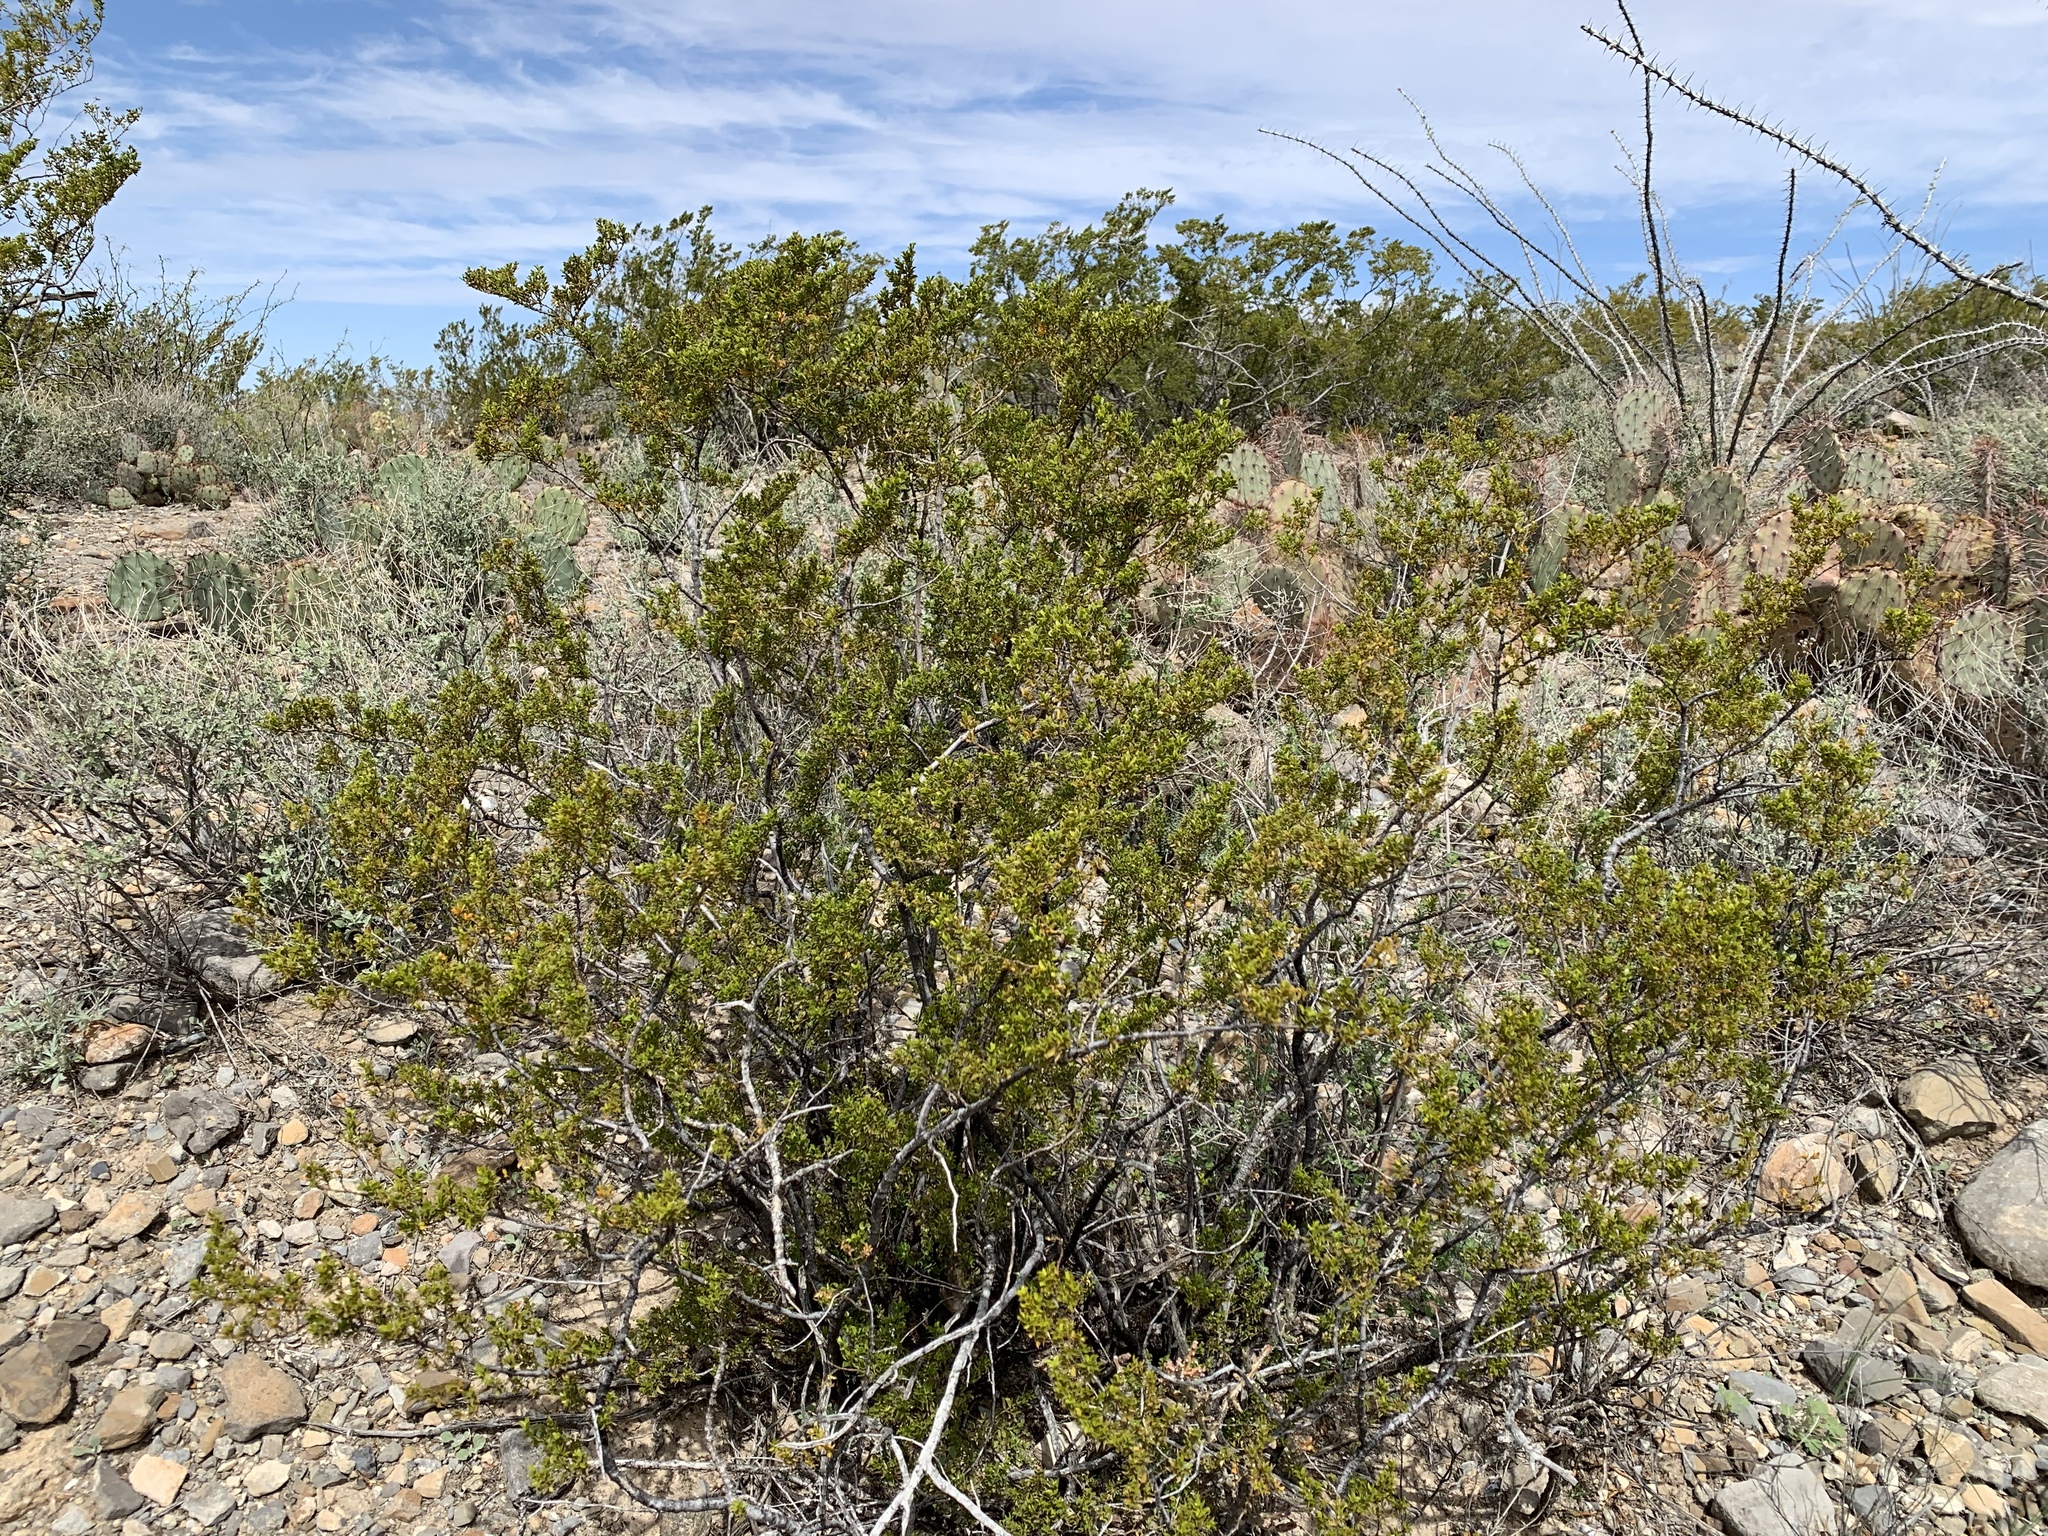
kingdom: Plantae
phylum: Tracheophyta
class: Magnoliopsida
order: Zygophyllales
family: Zygophyllaceae
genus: Larrea
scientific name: Larrea tridentata
